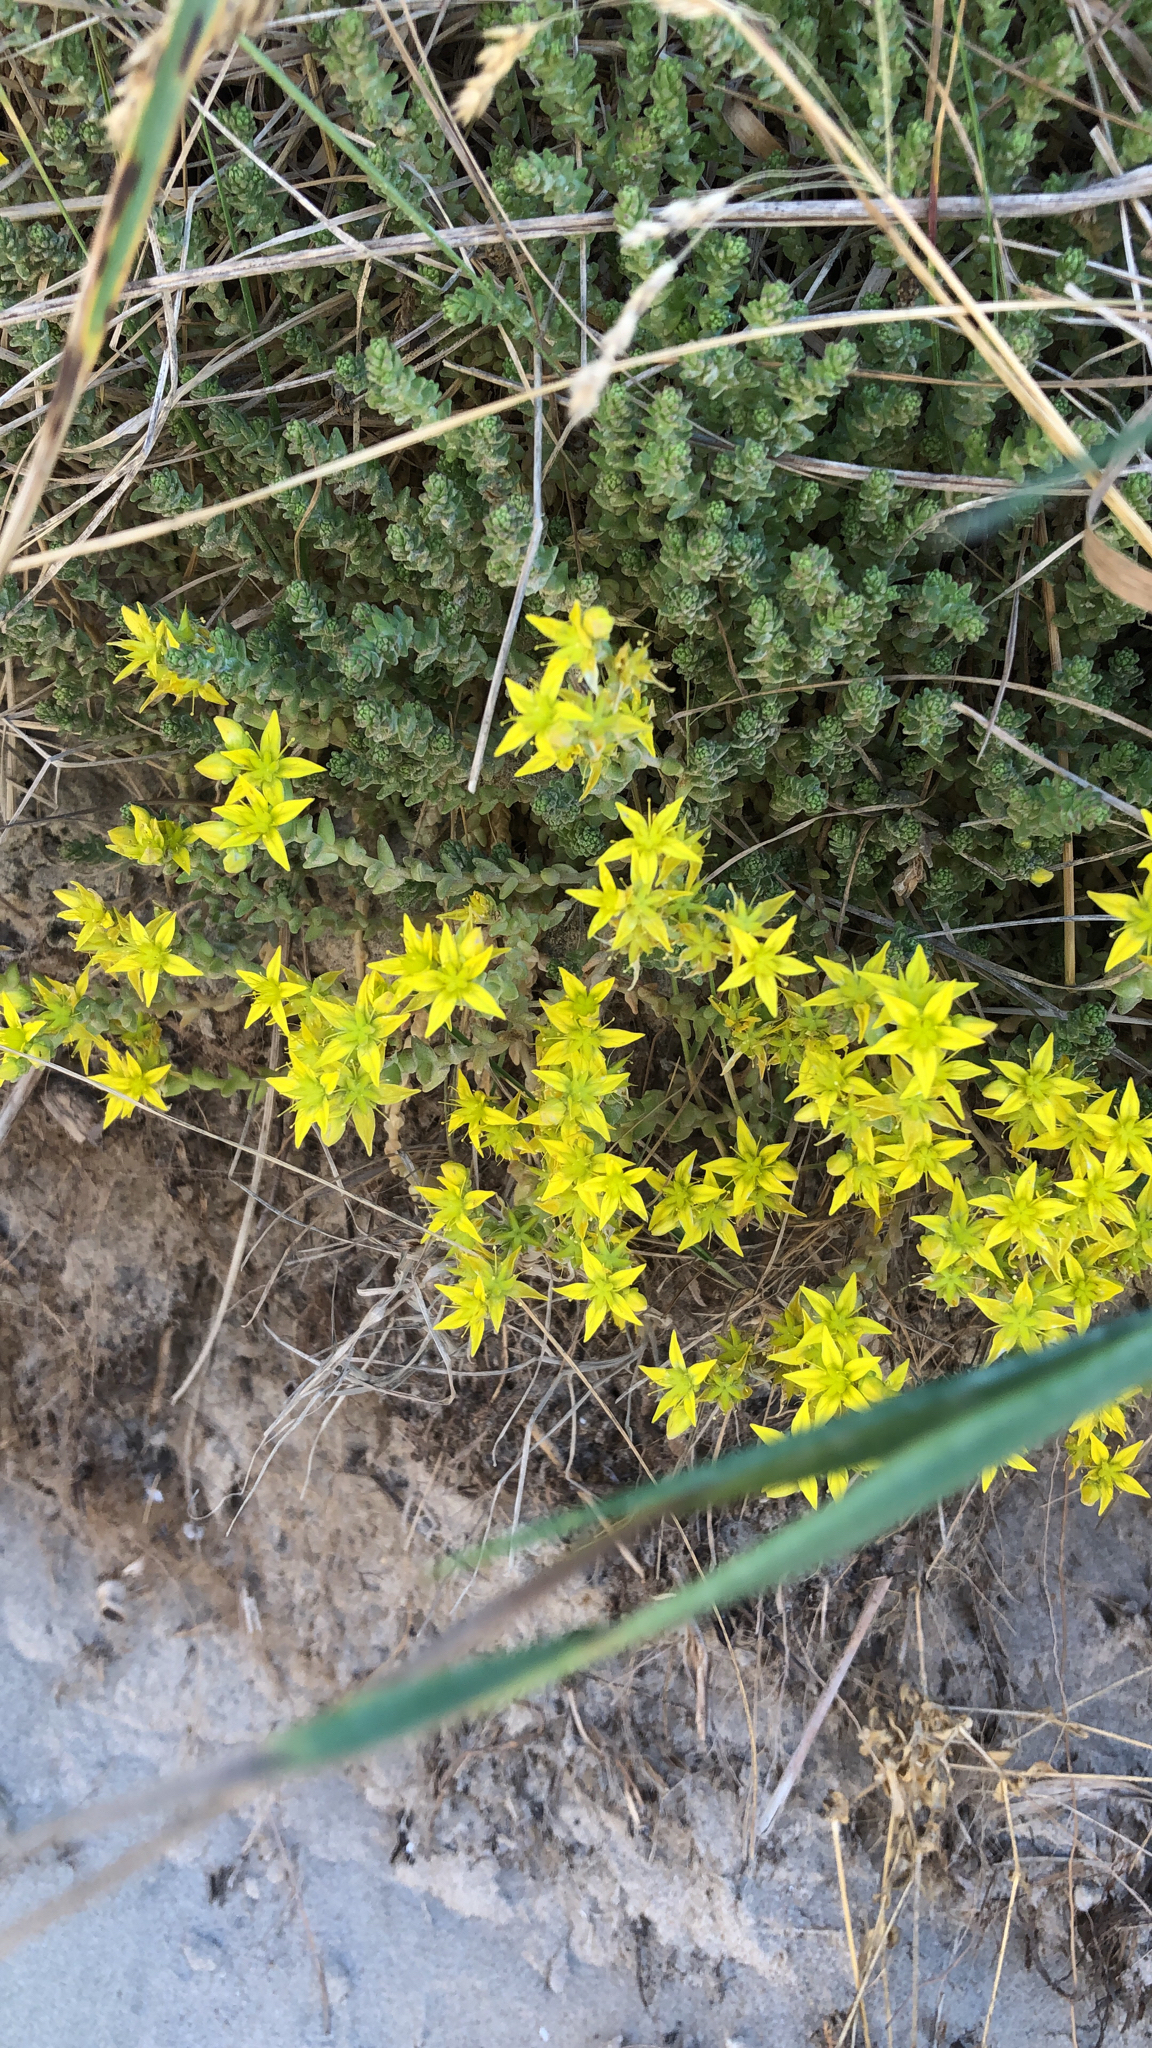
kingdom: Plantae
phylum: Tracheophyta
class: Magnoliopsida
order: Saxifragales
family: Crassulaceae
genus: Sedum
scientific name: Sedum acre
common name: Biting stonecrop
